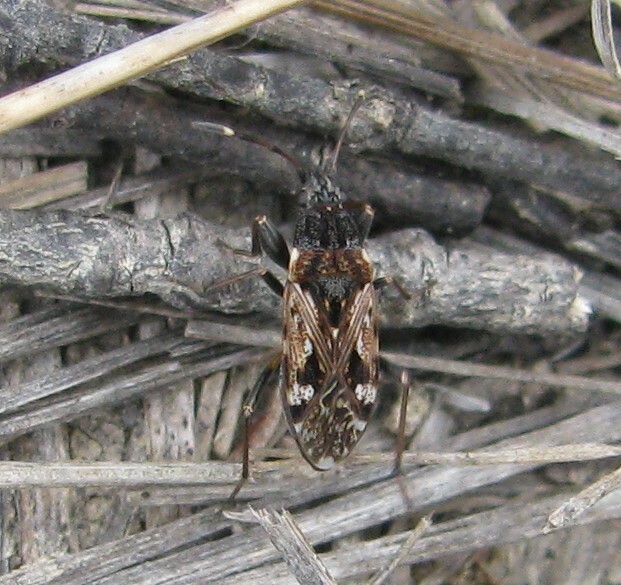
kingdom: Animalia
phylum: Arthropoda
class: Insecta
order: Hemiptera
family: Rhyparochromidae
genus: Euander
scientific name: Euander lacertosus
